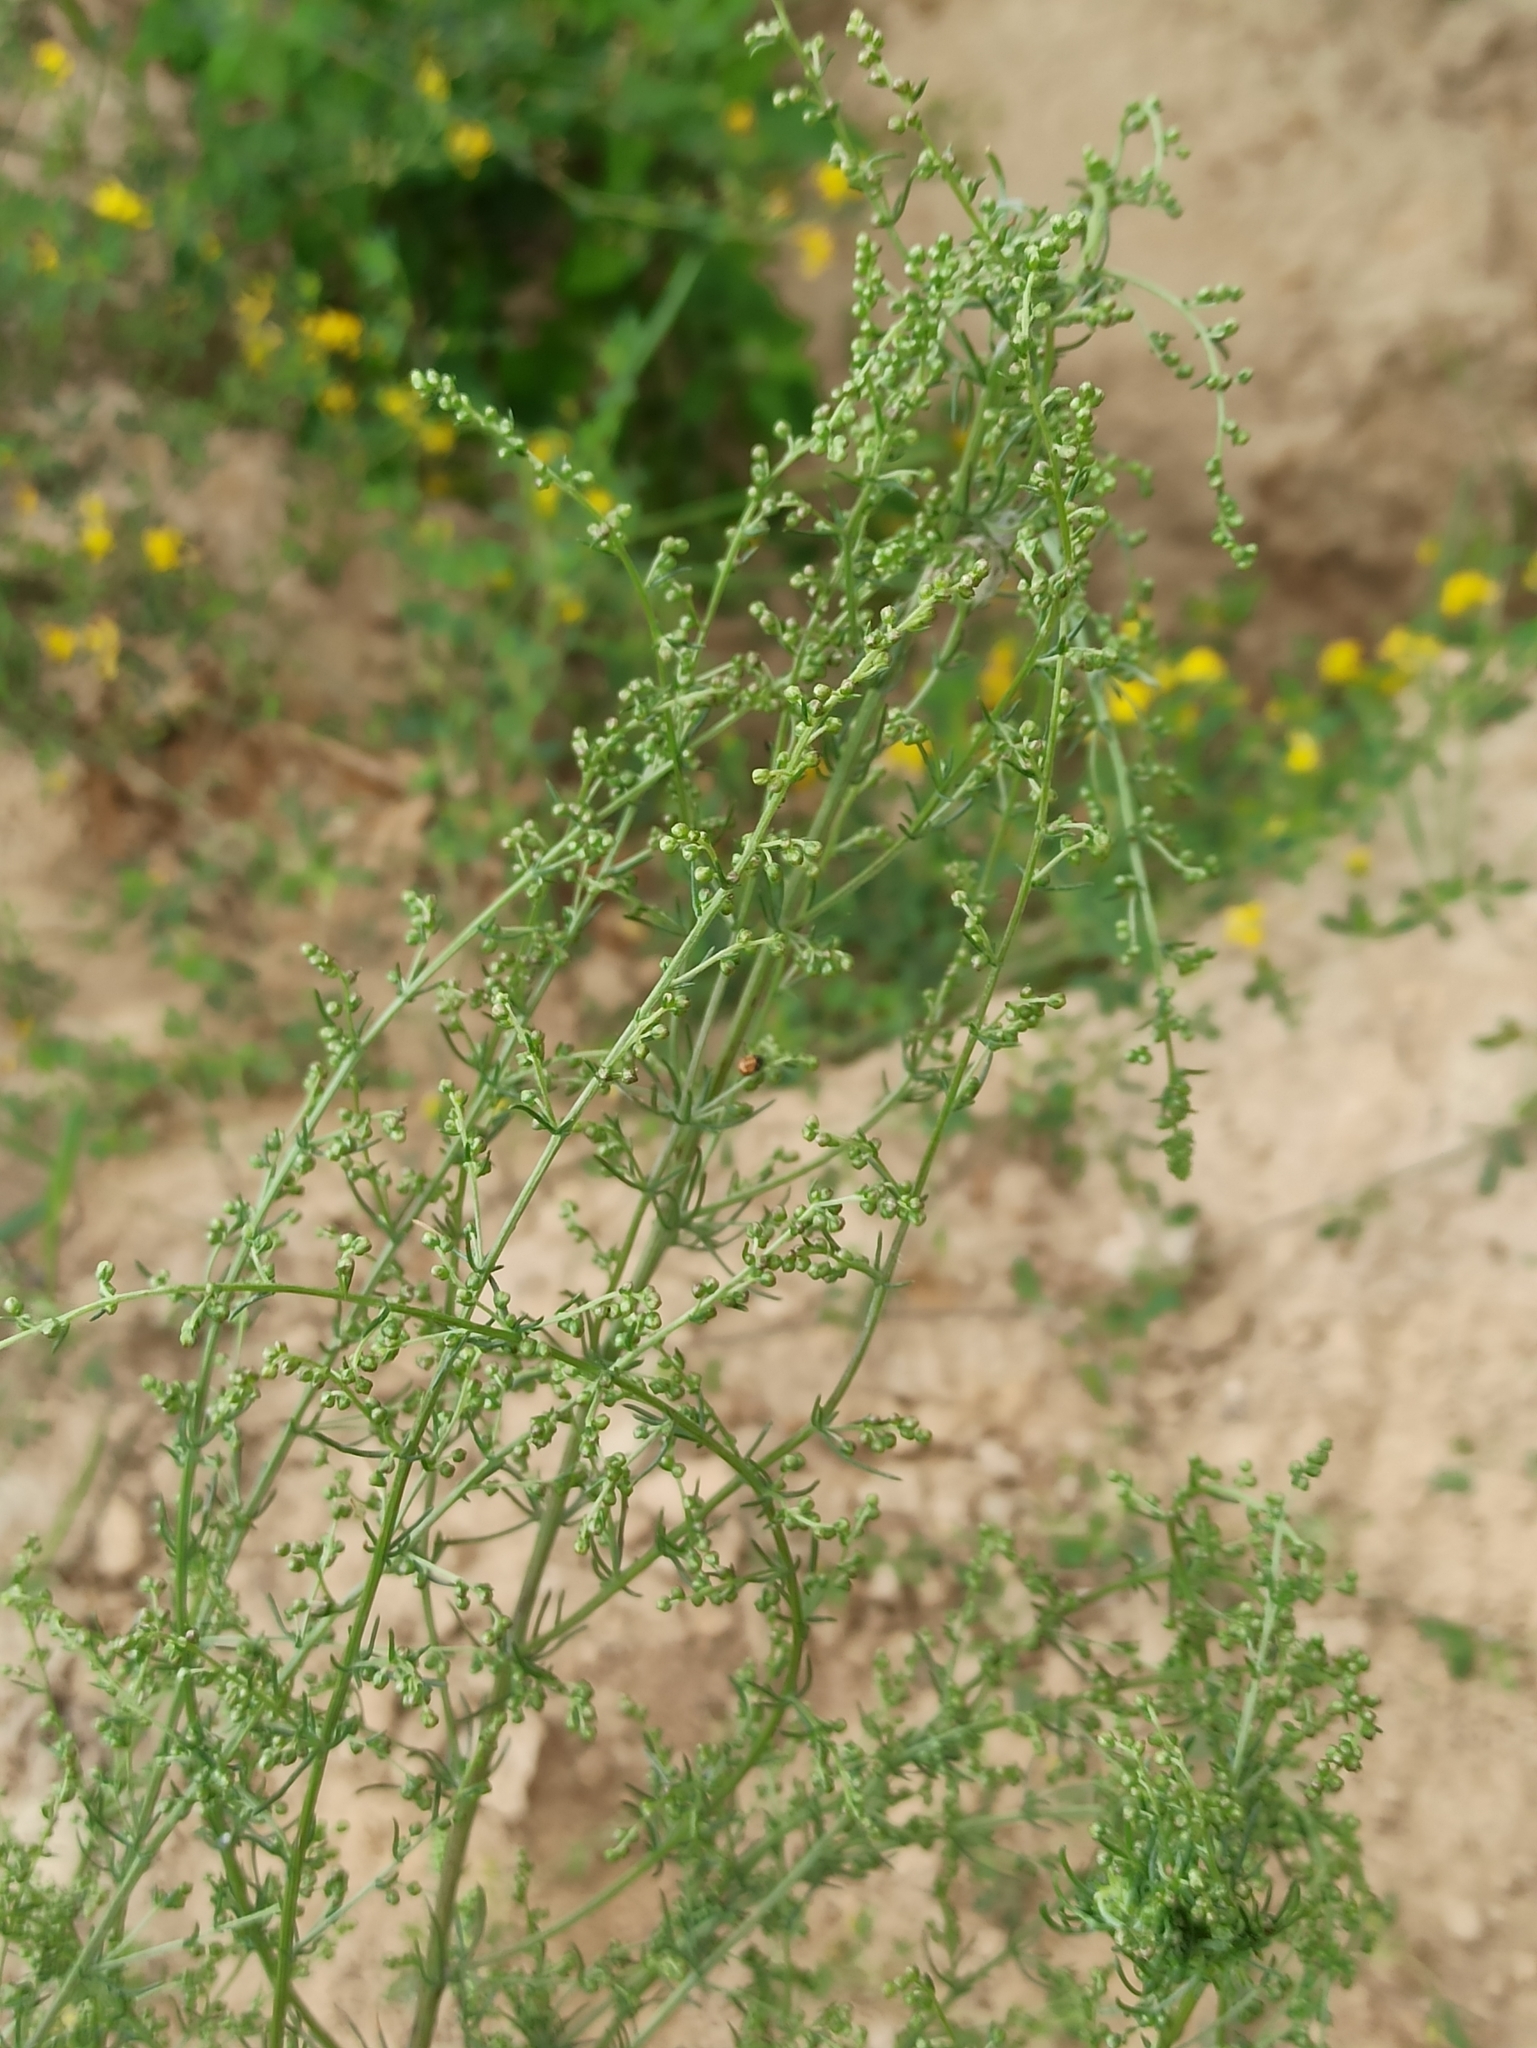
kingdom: Plantae
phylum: Tracheophyta
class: Magnoliopsida
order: Asterales
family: Asteraceae
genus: Artemisia
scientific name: Artemisia campestris
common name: Field wormwood
